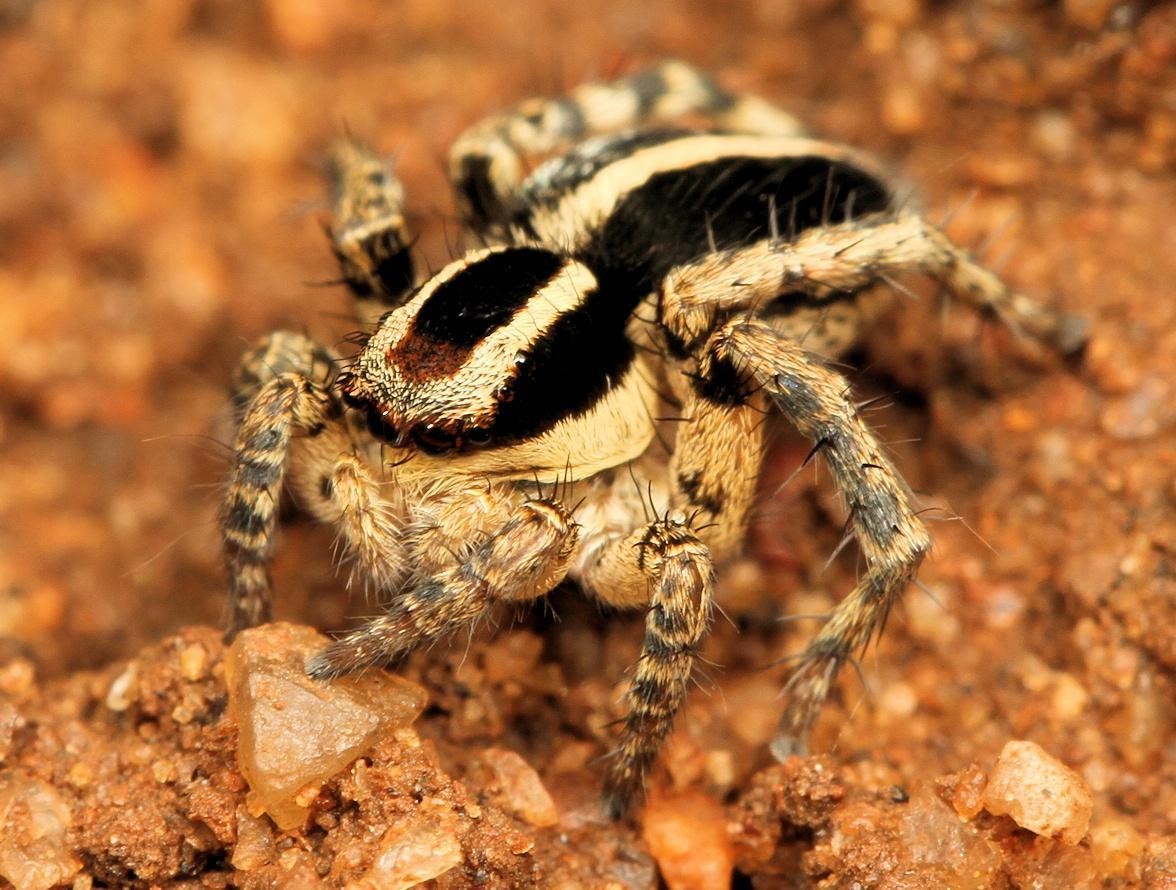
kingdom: Animalia
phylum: Arthropoda
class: Arachnida
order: Araneae
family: Salticidae
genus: Stenaelurillus
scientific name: Stenaelurillus termitophagus
